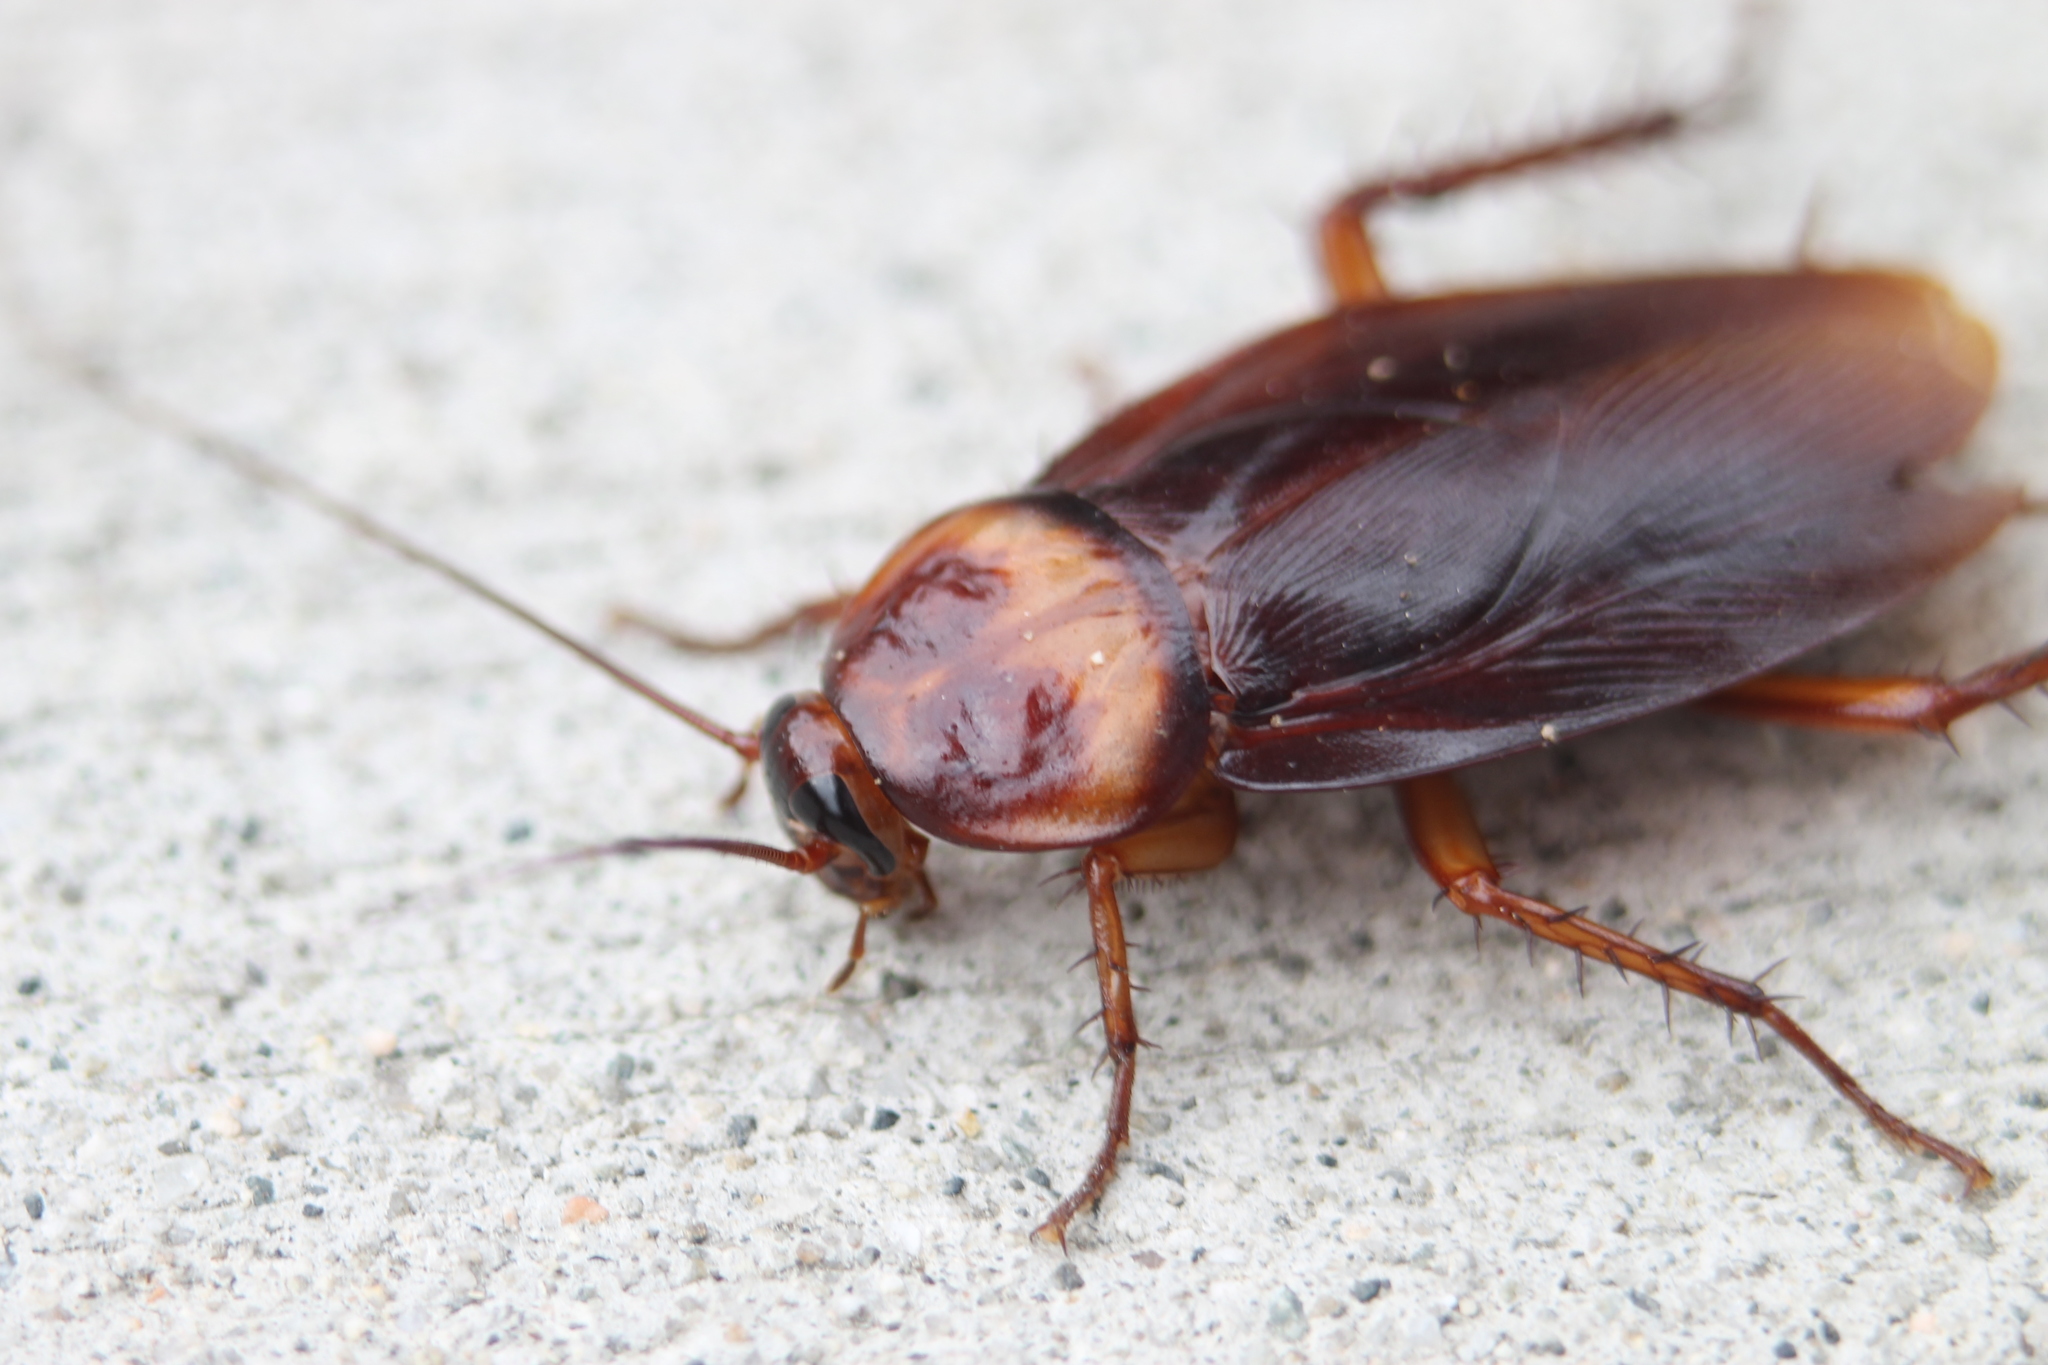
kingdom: Animalia
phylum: Arthropoda
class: Insecta
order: Blattodea
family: Blattidae
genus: Periplaneta
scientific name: Periplaneta americana
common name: American cockroach
